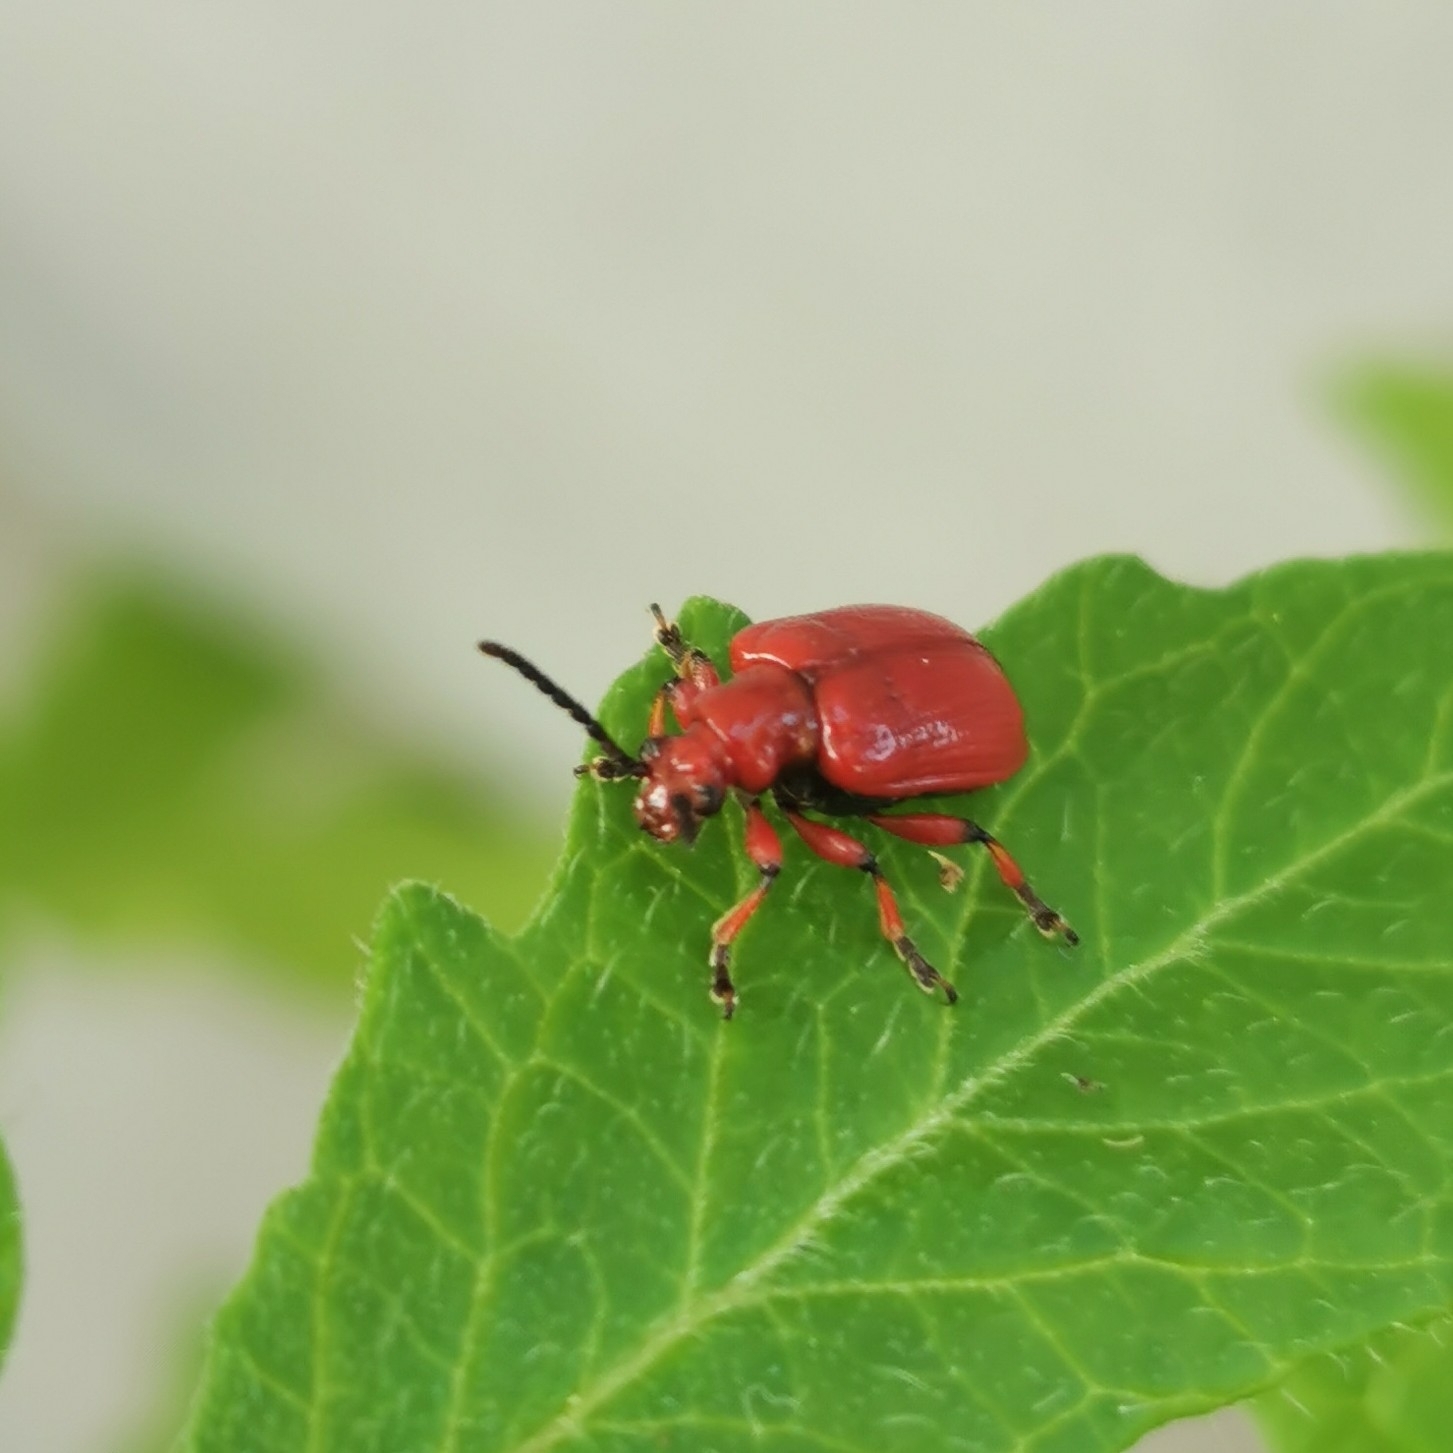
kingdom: Animalia
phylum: Arthropoda
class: Insecta
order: Coleoptera
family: Chrysomelidae
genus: Lilioceris
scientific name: Lilioceris merdigera
